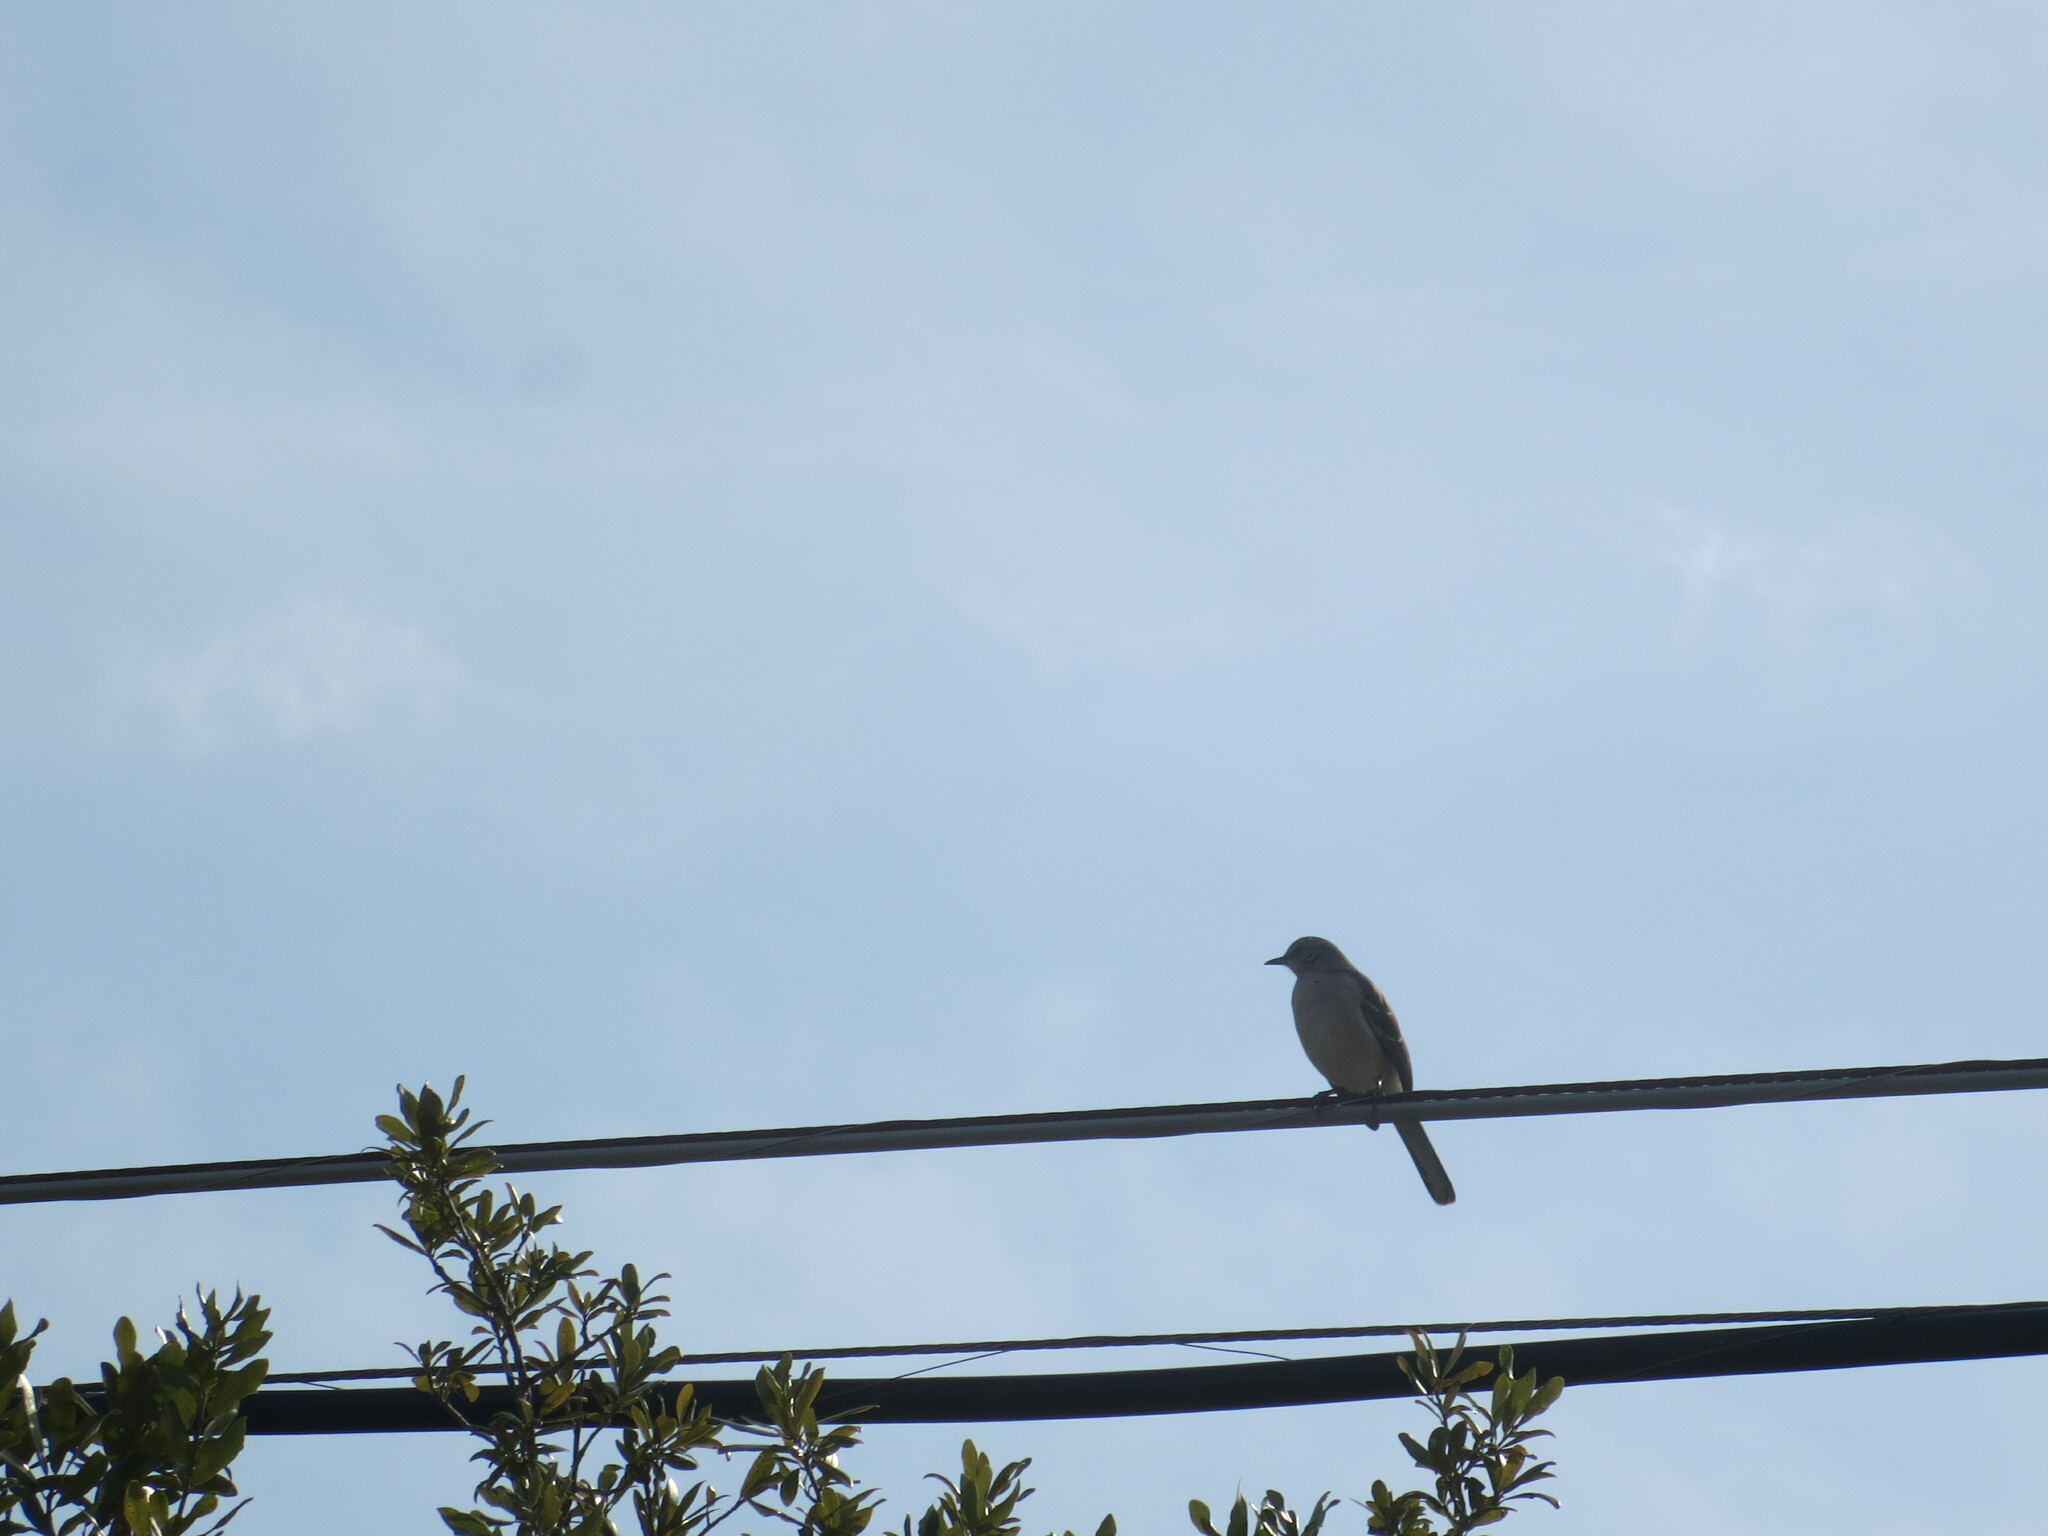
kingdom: Animalia
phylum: Chordata
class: Aves
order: Passeriformes
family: Mimidae
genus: Mimus
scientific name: Mimus polyglottos
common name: Northern mockingbird
